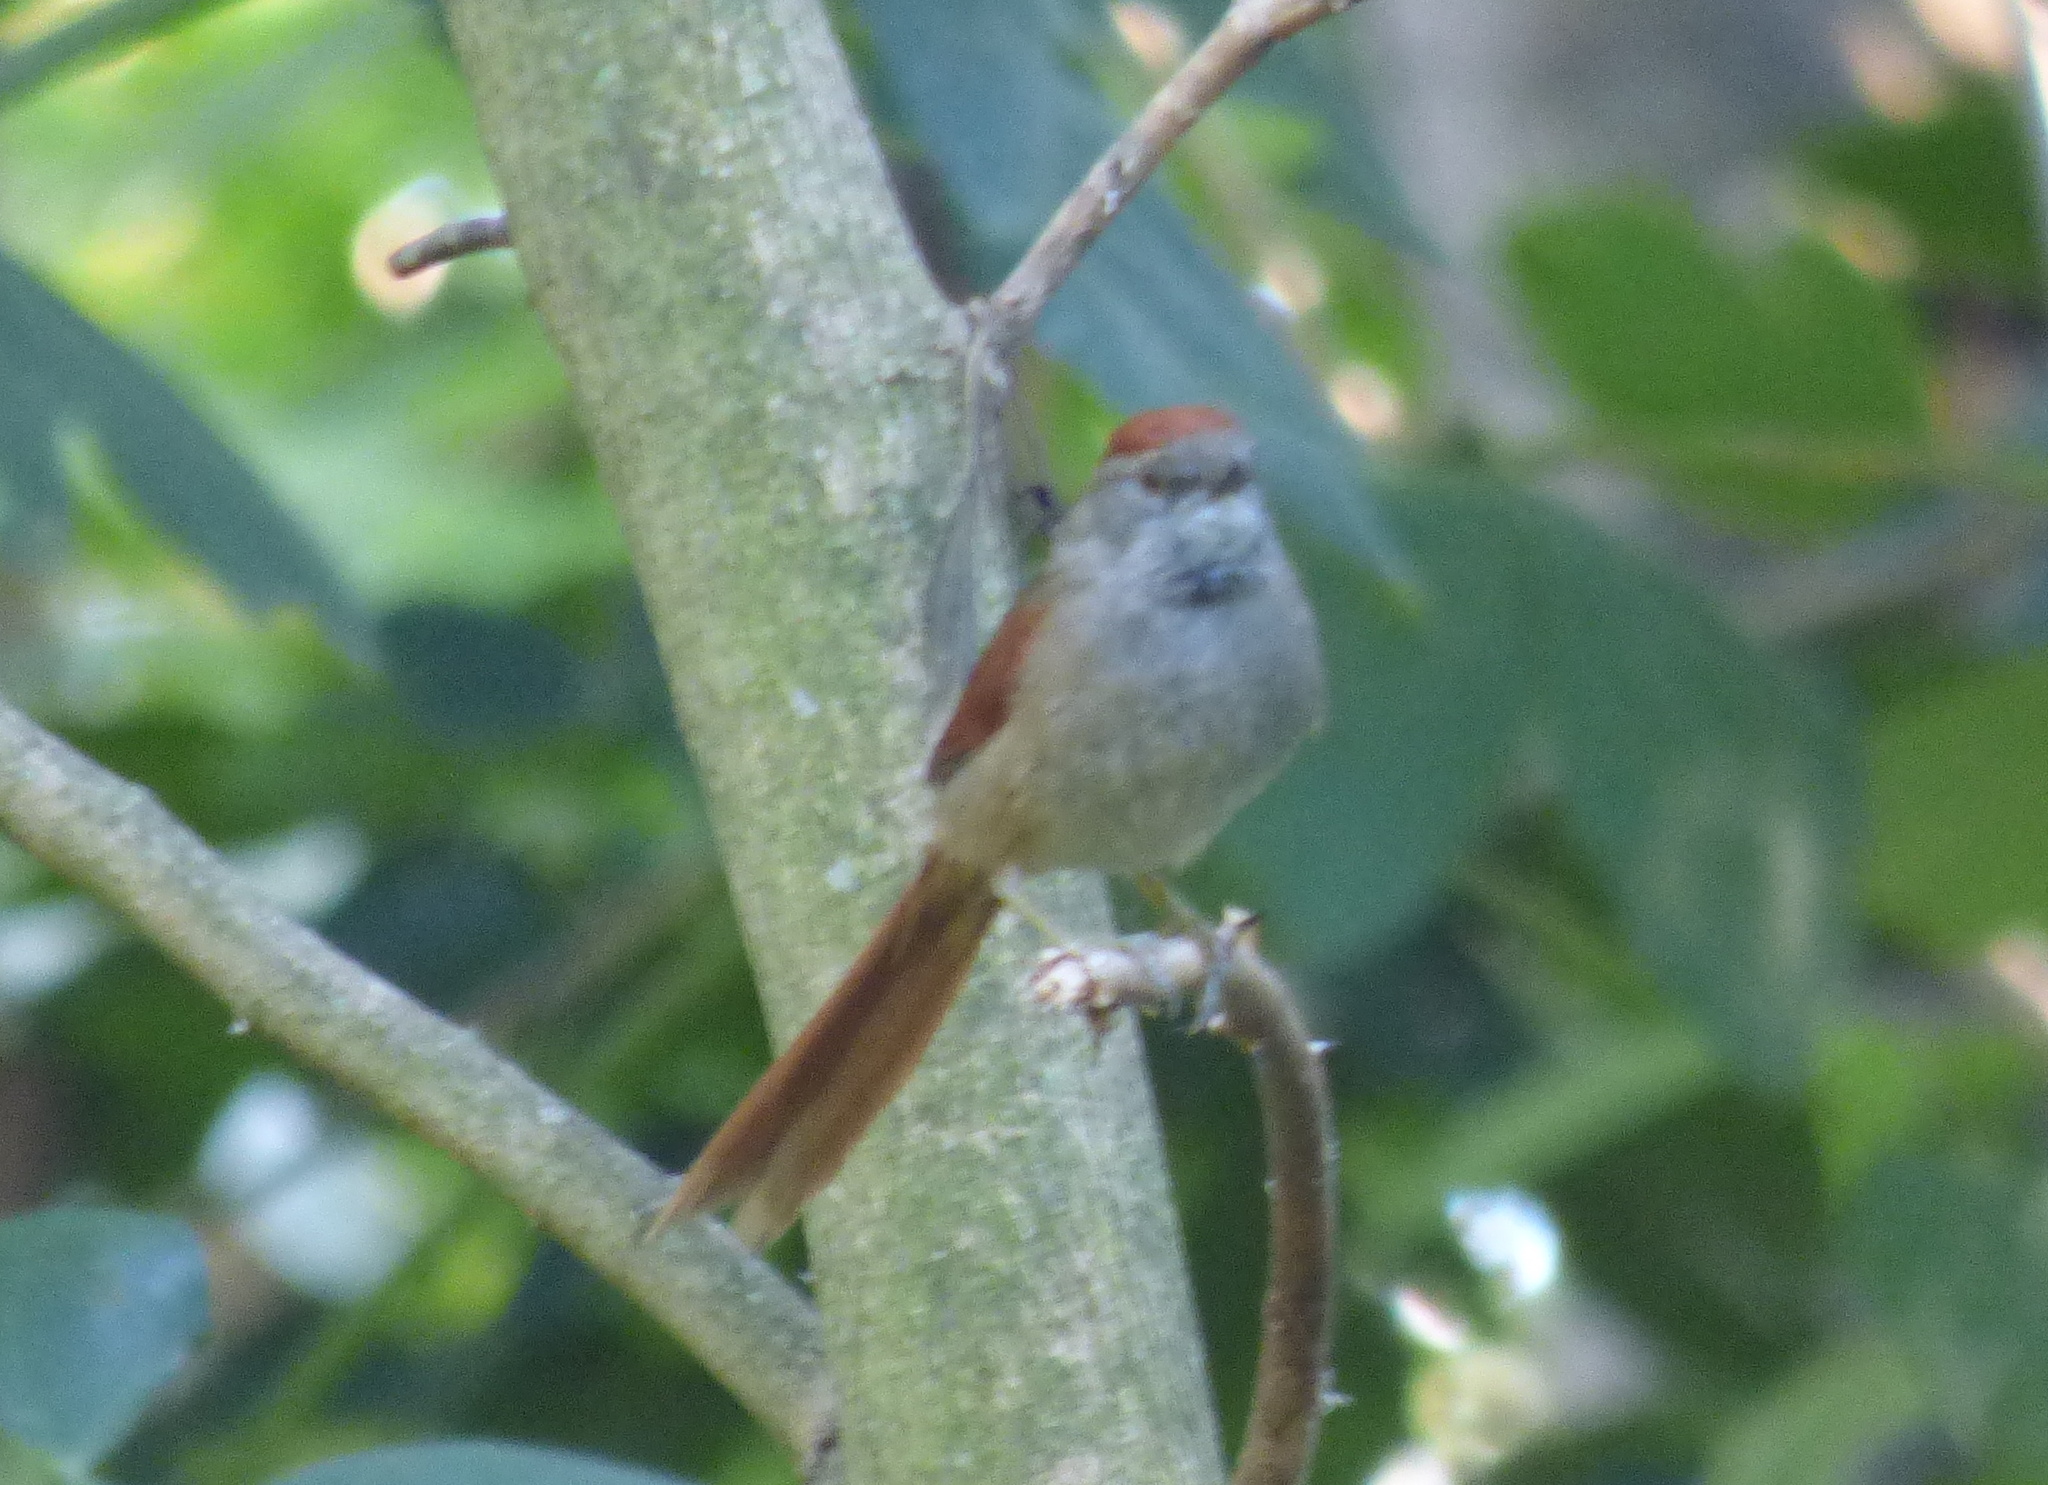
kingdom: Animalia
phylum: Chordata
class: Aves
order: Passeriformes
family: Furnariidae
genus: Synallaxis
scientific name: Synallaxis frontalis
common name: Sooty-fronted spinetail
